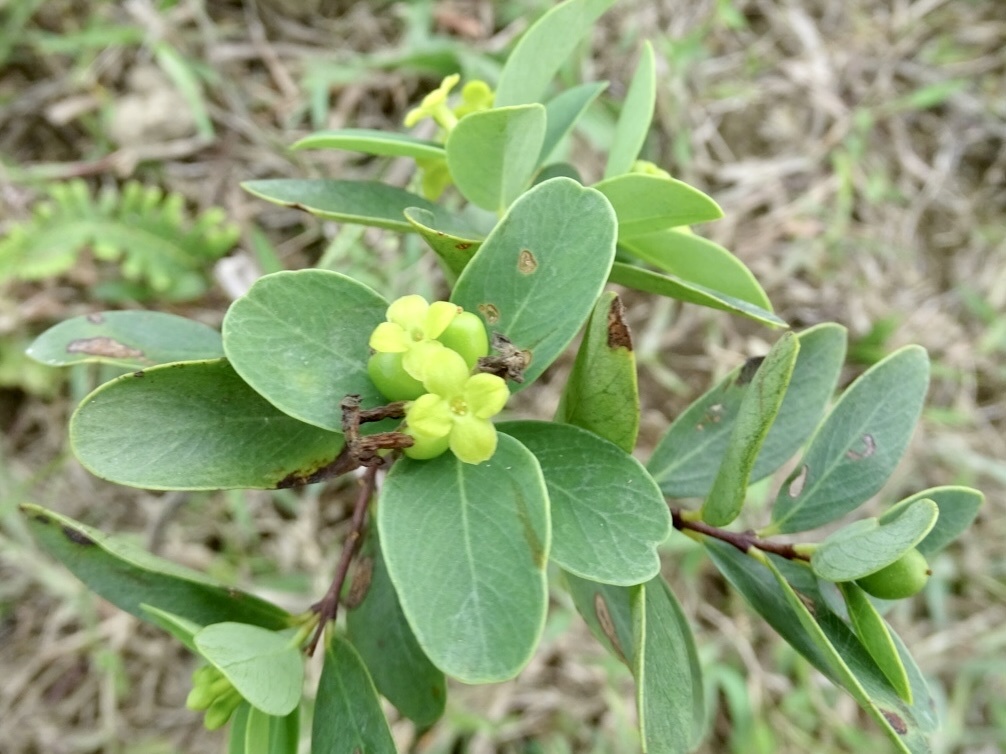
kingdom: Plantae
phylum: Tracheophyta
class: Magnoliopsida
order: Malvales
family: Thymelaeaceae
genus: Wikstroemia
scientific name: Wikstroemia indica
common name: Tiebush
